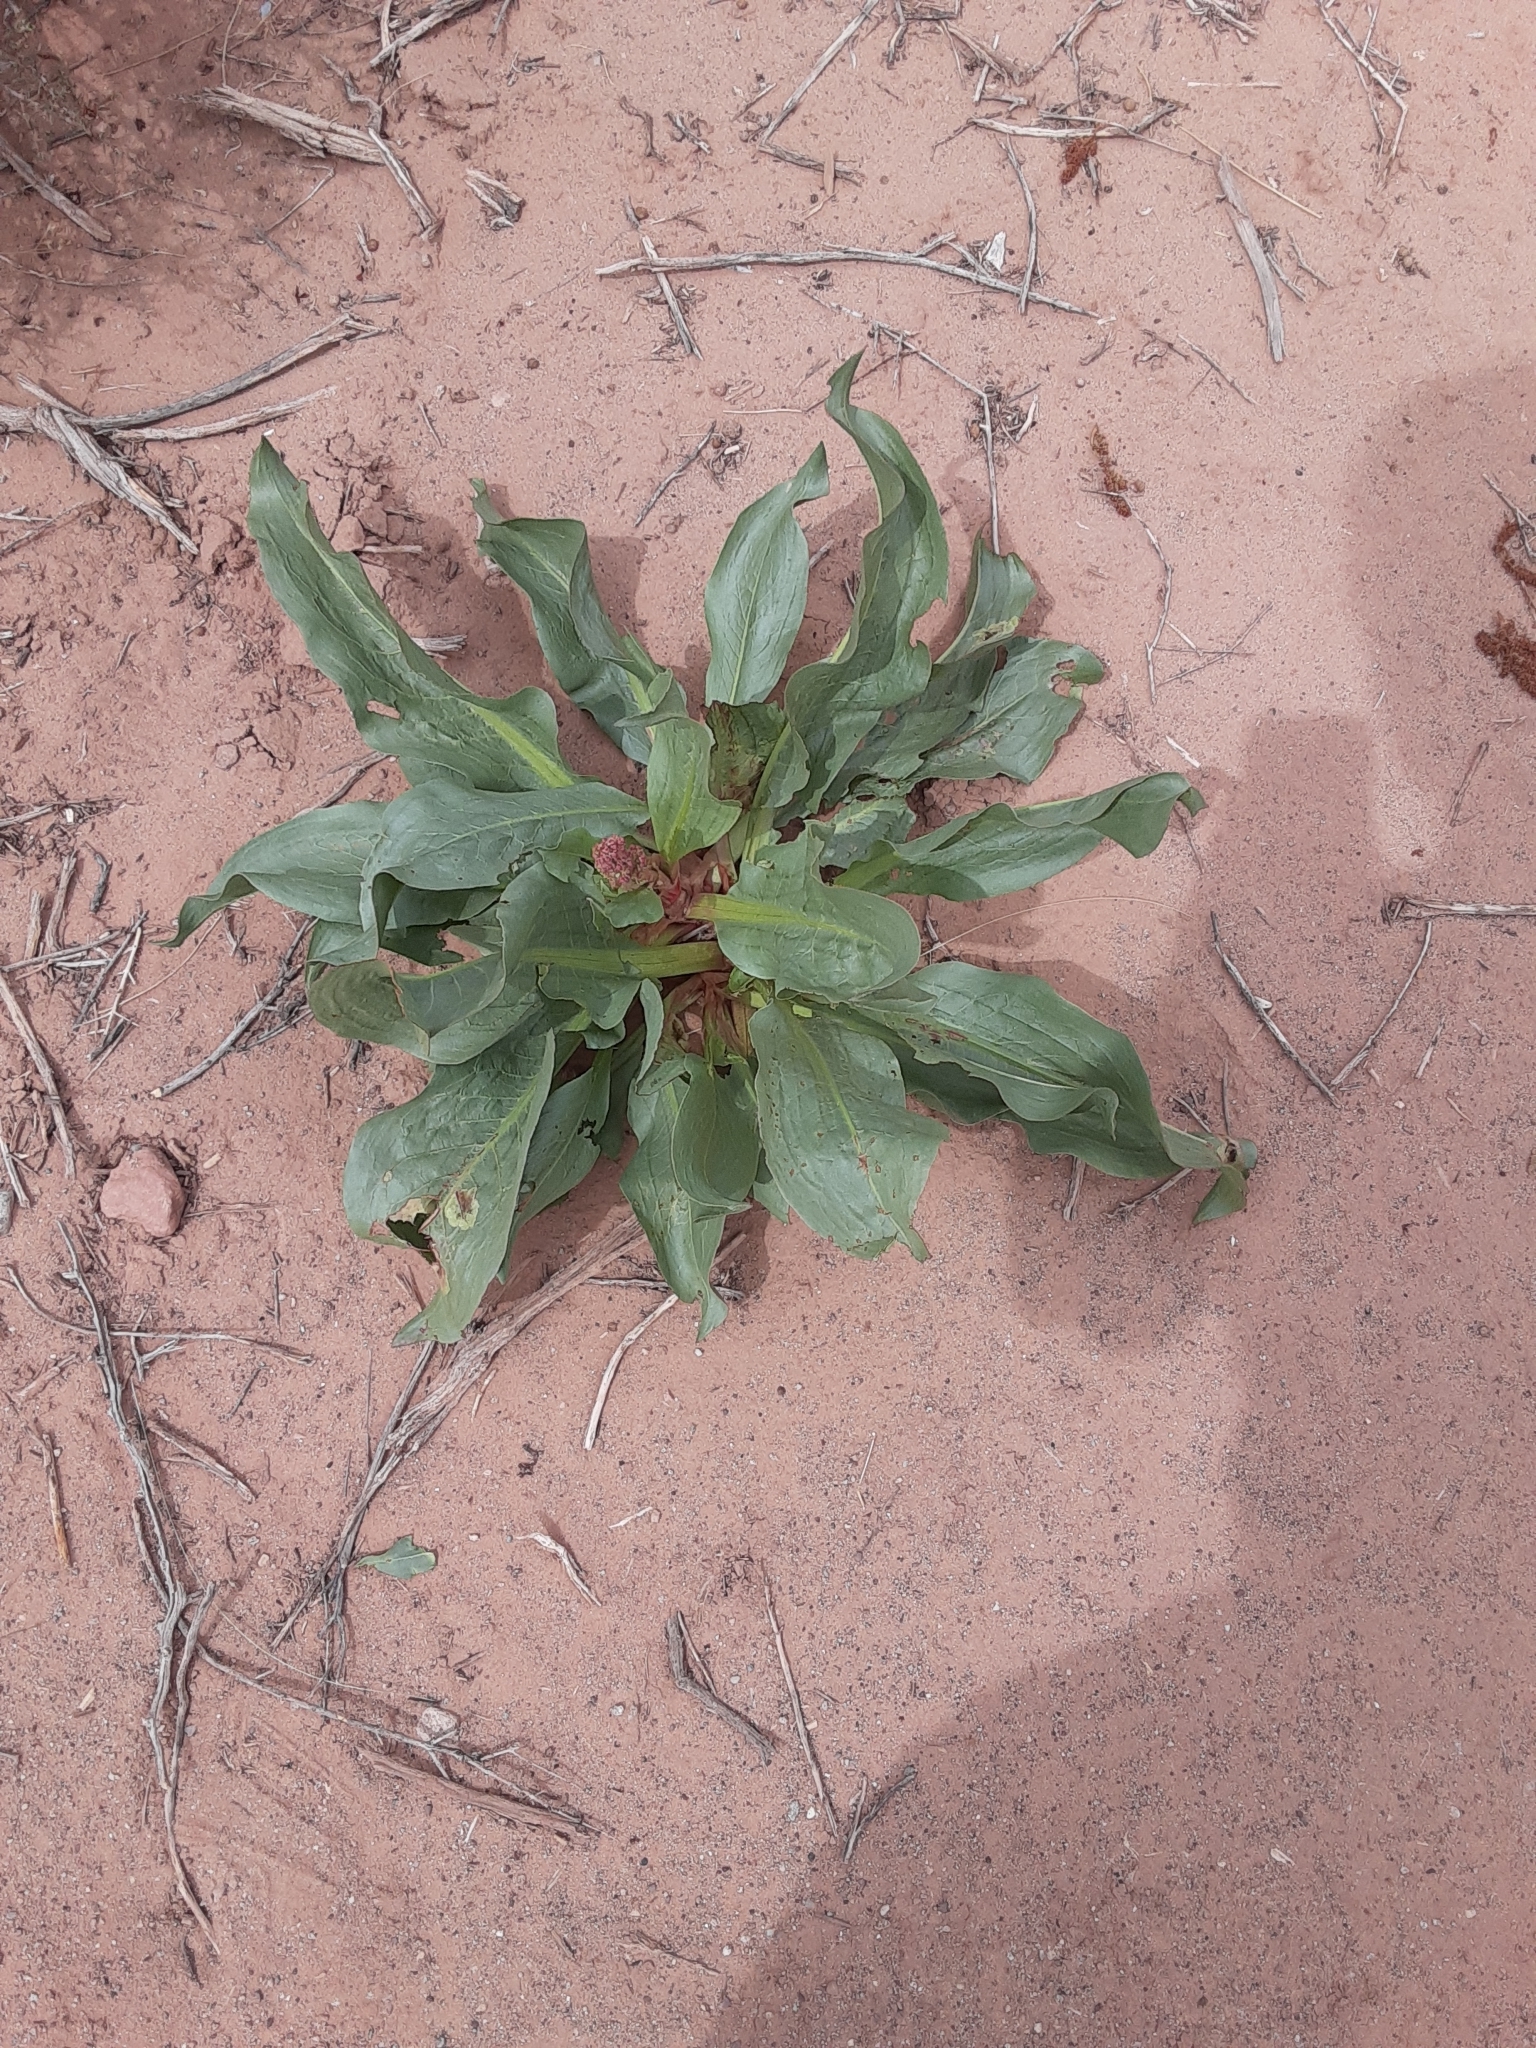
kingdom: Plantae
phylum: Tracheophyta
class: Magnoliopsida
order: Caryophyllales
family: Polygonaceae
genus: Rumex
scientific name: Rumex hymenosepalus
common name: Ganagra
